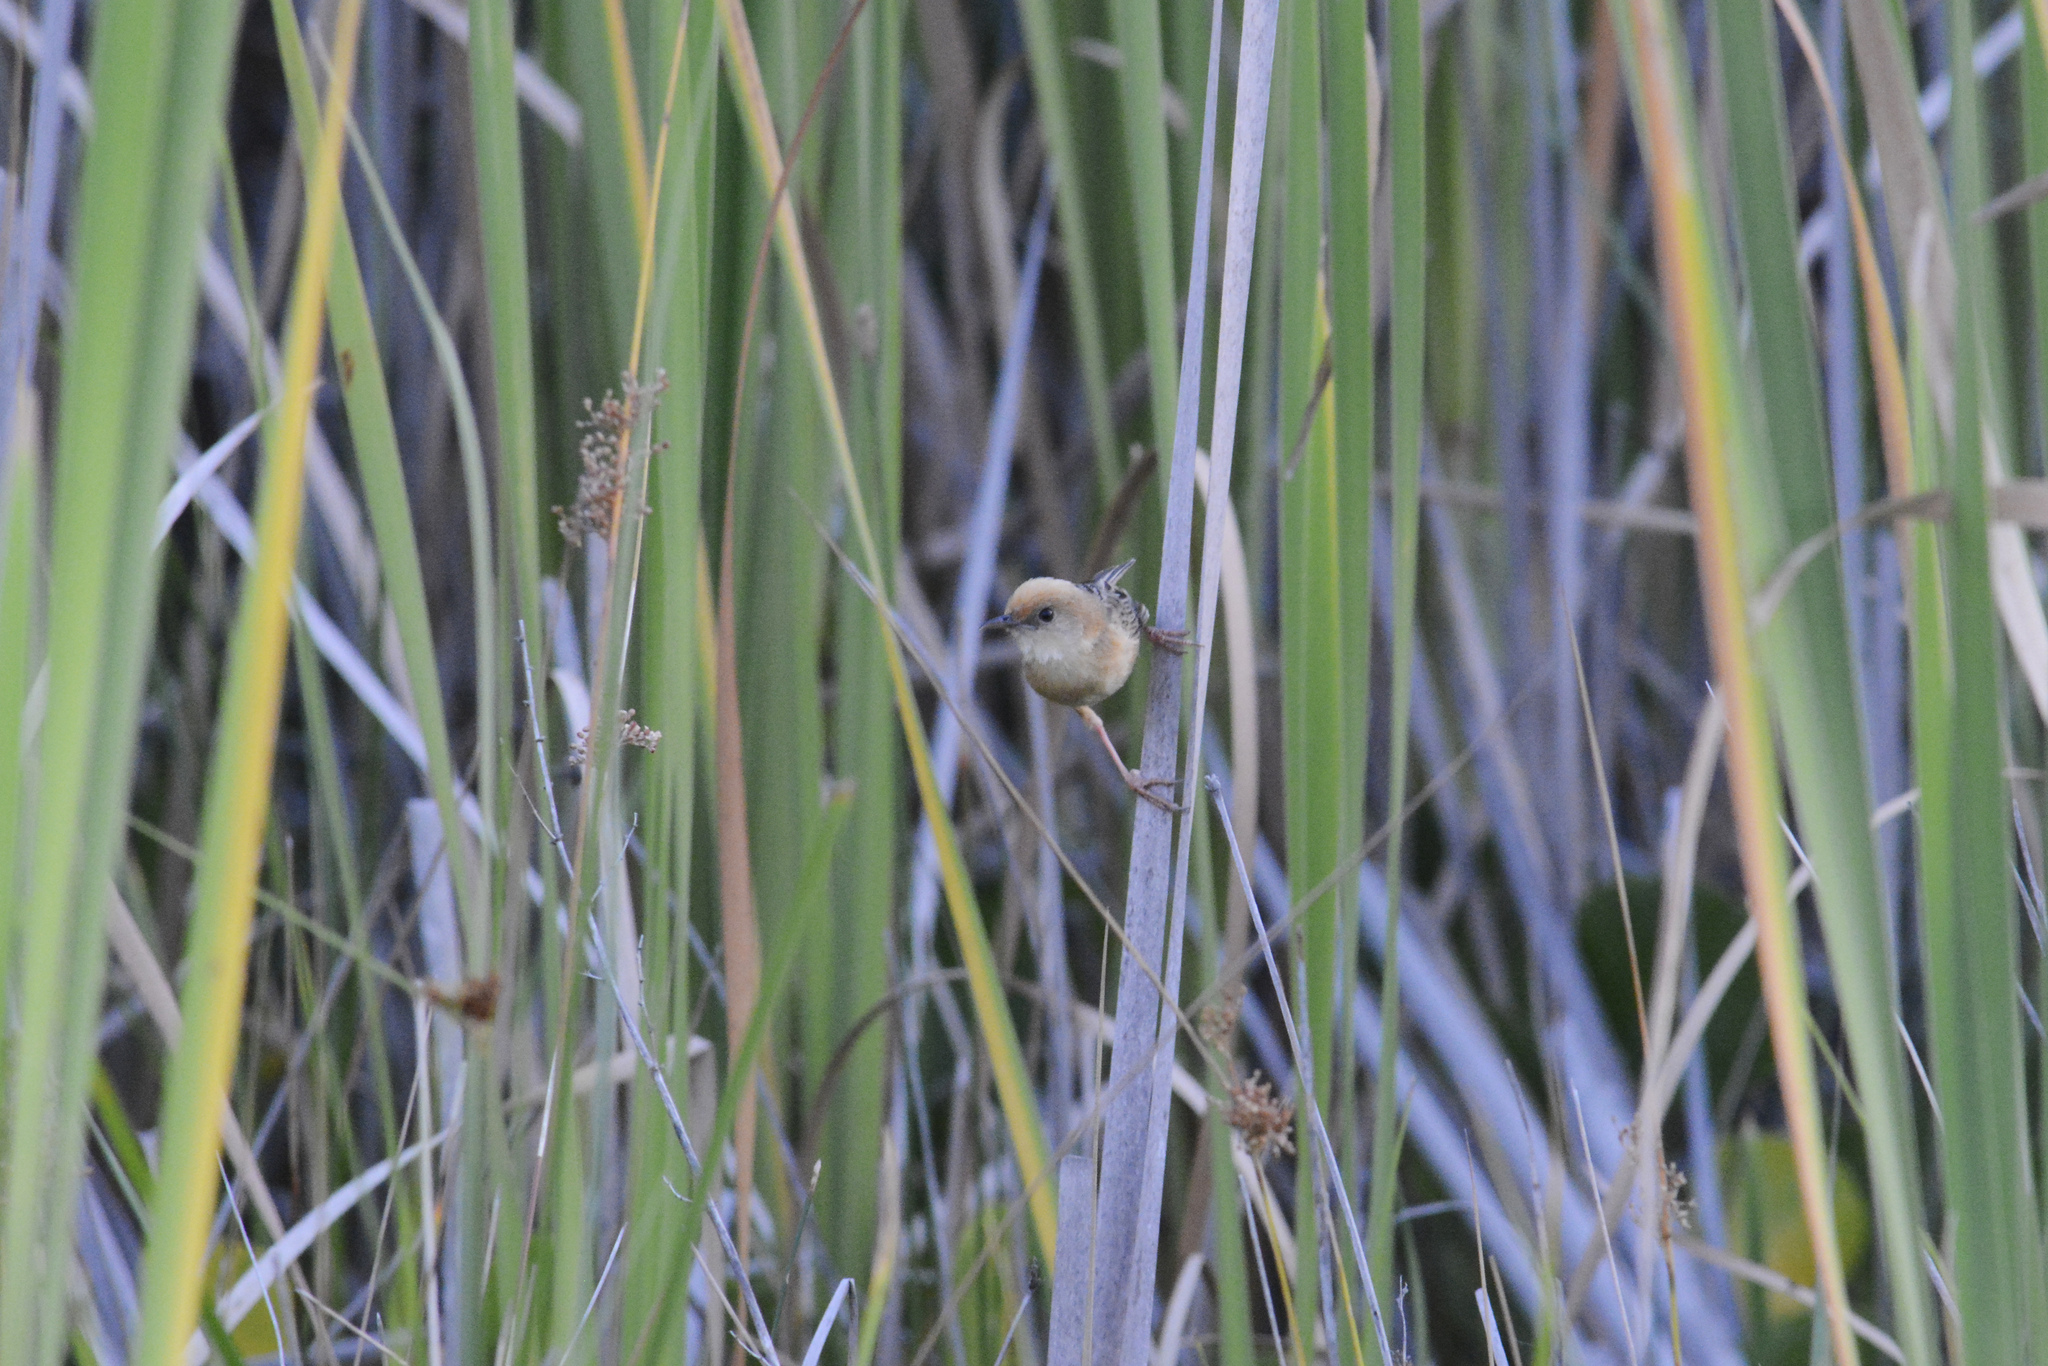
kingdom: Animalia
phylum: Chordata
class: Aves
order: Passeriformes
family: Cisticolidae
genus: Cisticola
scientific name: Cisticola exilis
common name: Golden-headed cisticola
